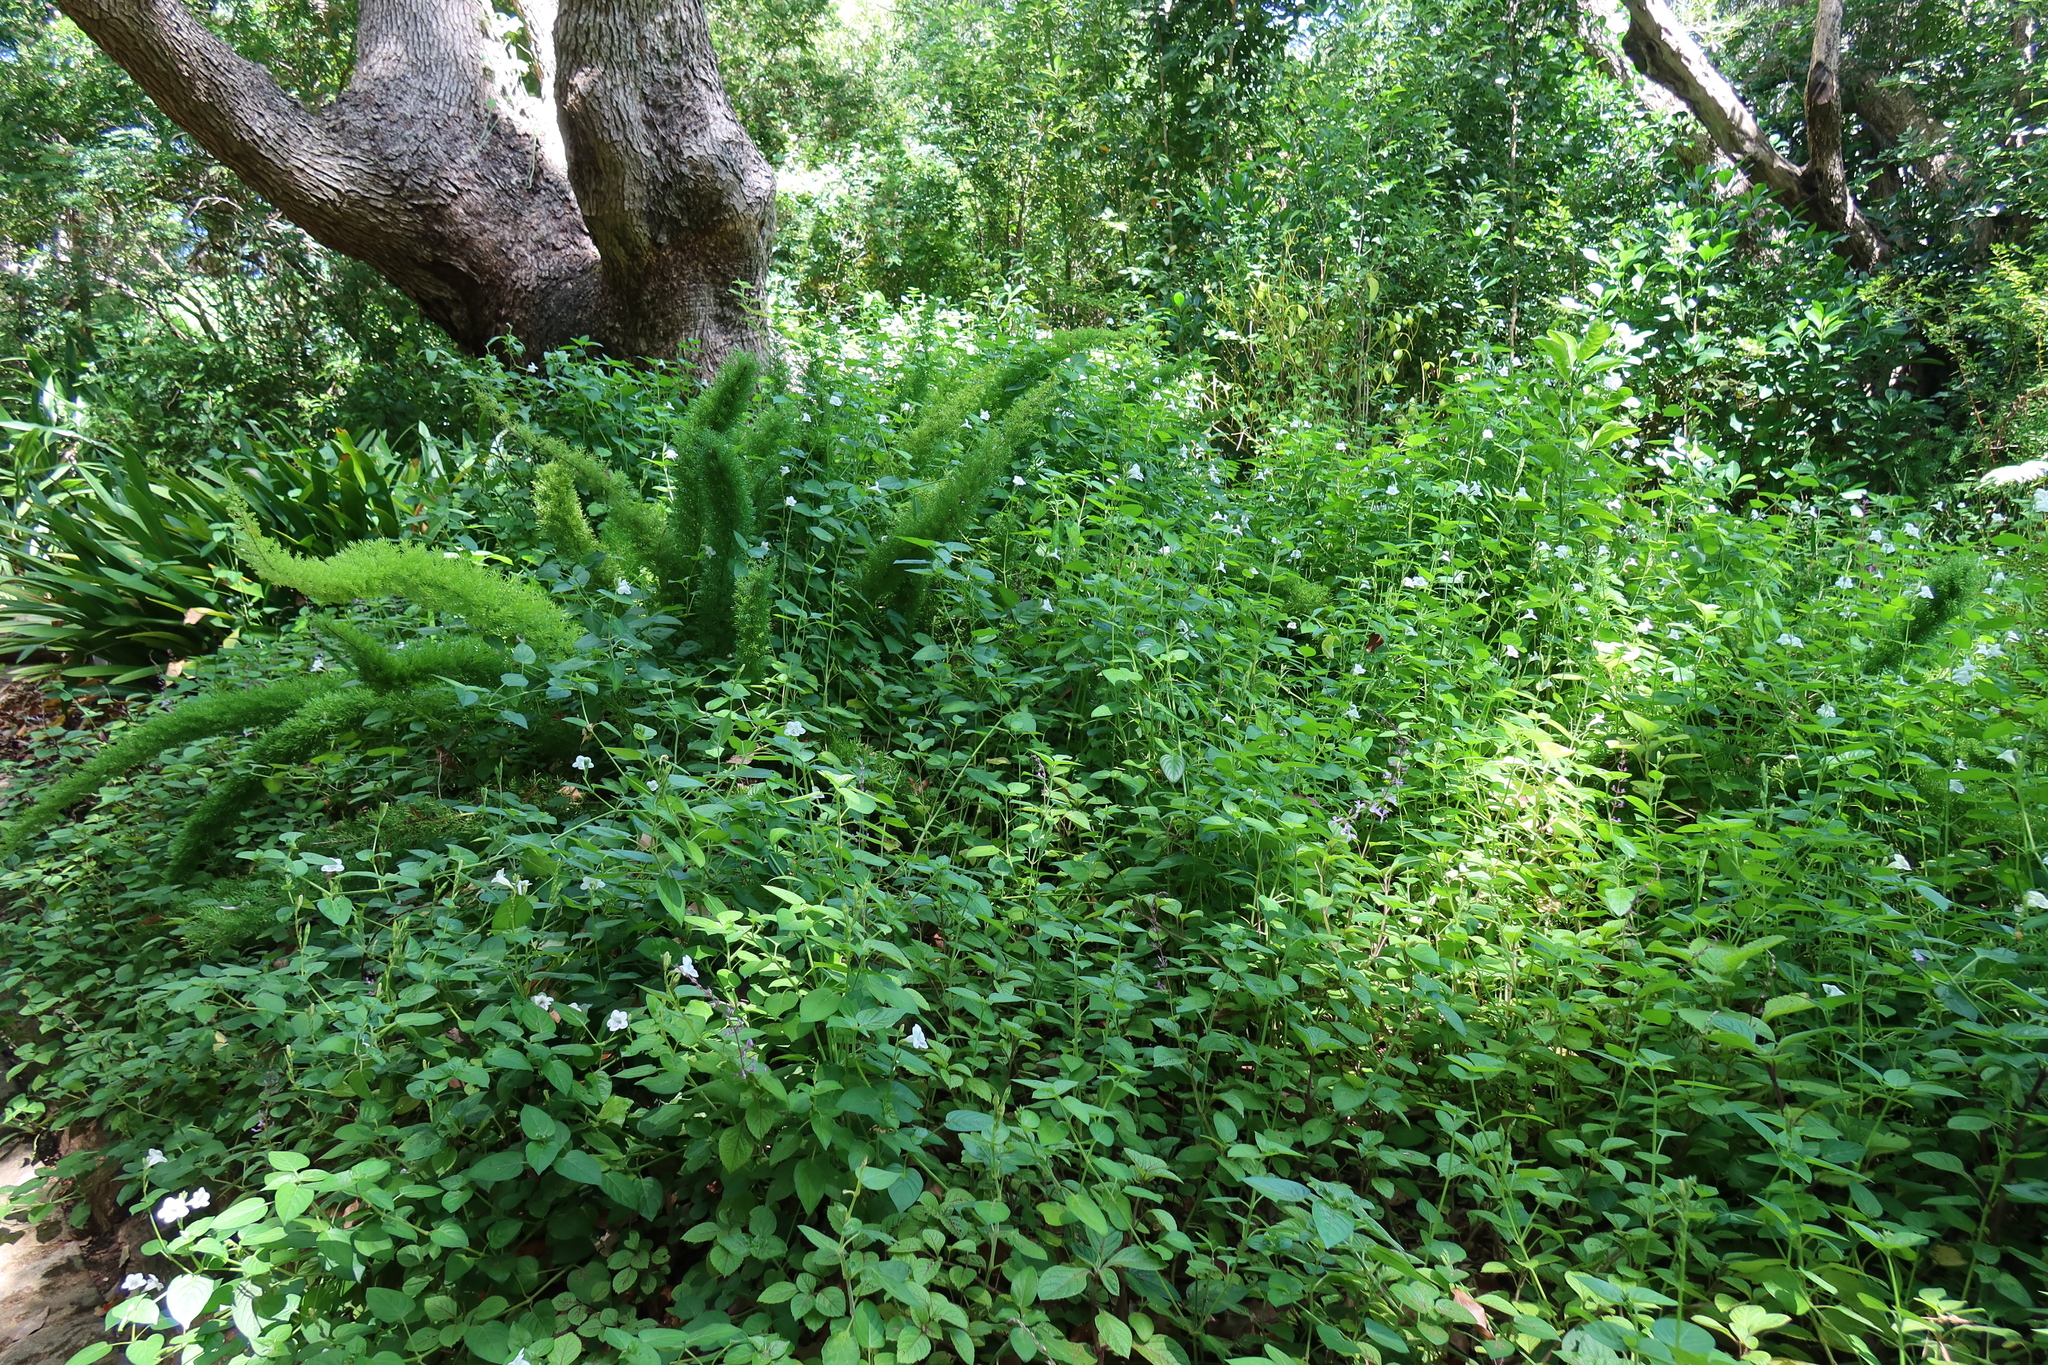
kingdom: Plantae
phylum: Tracheophyta
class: Magnoliopsida
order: Lamiales
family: Acanthaceae
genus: Asystasia
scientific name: Asystasia intrusa
